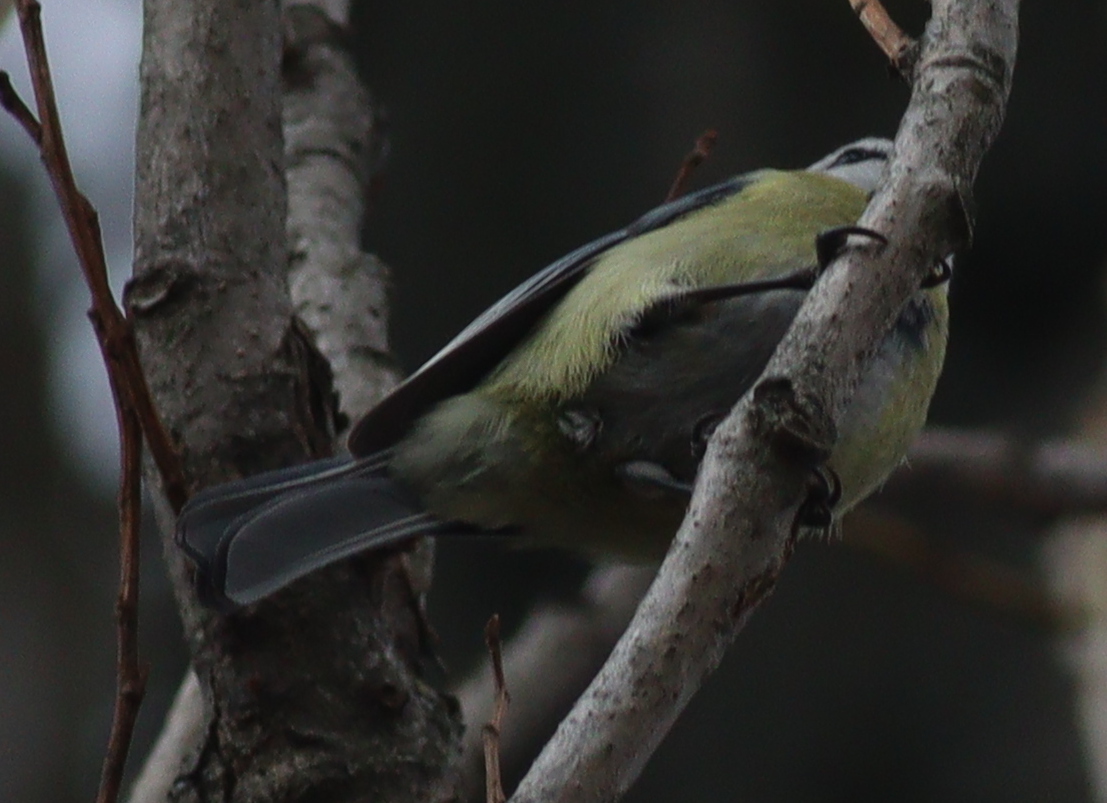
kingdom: Animalia
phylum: Chordata
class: Aves
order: Passeriformes
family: Paridae
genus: Cyanistes
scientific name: Cyanistes caeruleus
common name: Eurasian blue tit
